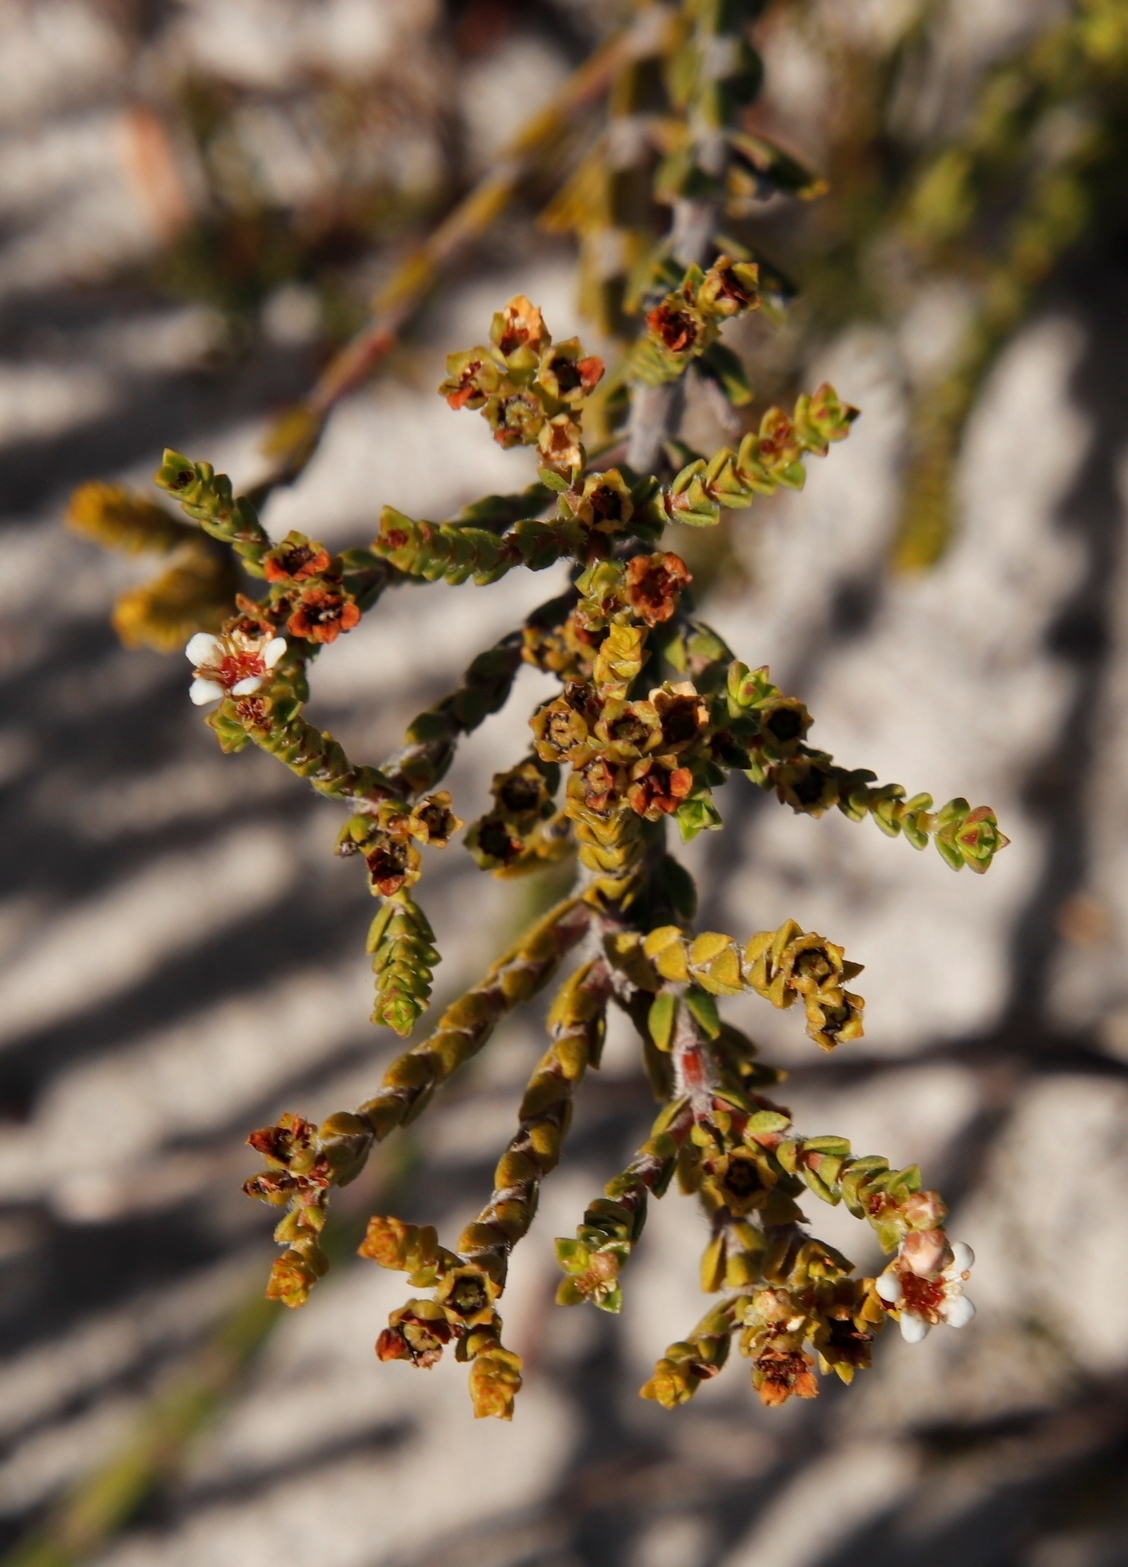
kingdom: Plantae
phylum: Tracheophyta
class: Magnoliopsida
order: Sapindales
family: Rutaceae
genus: Diosma
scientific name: Diosma oppositifolia
